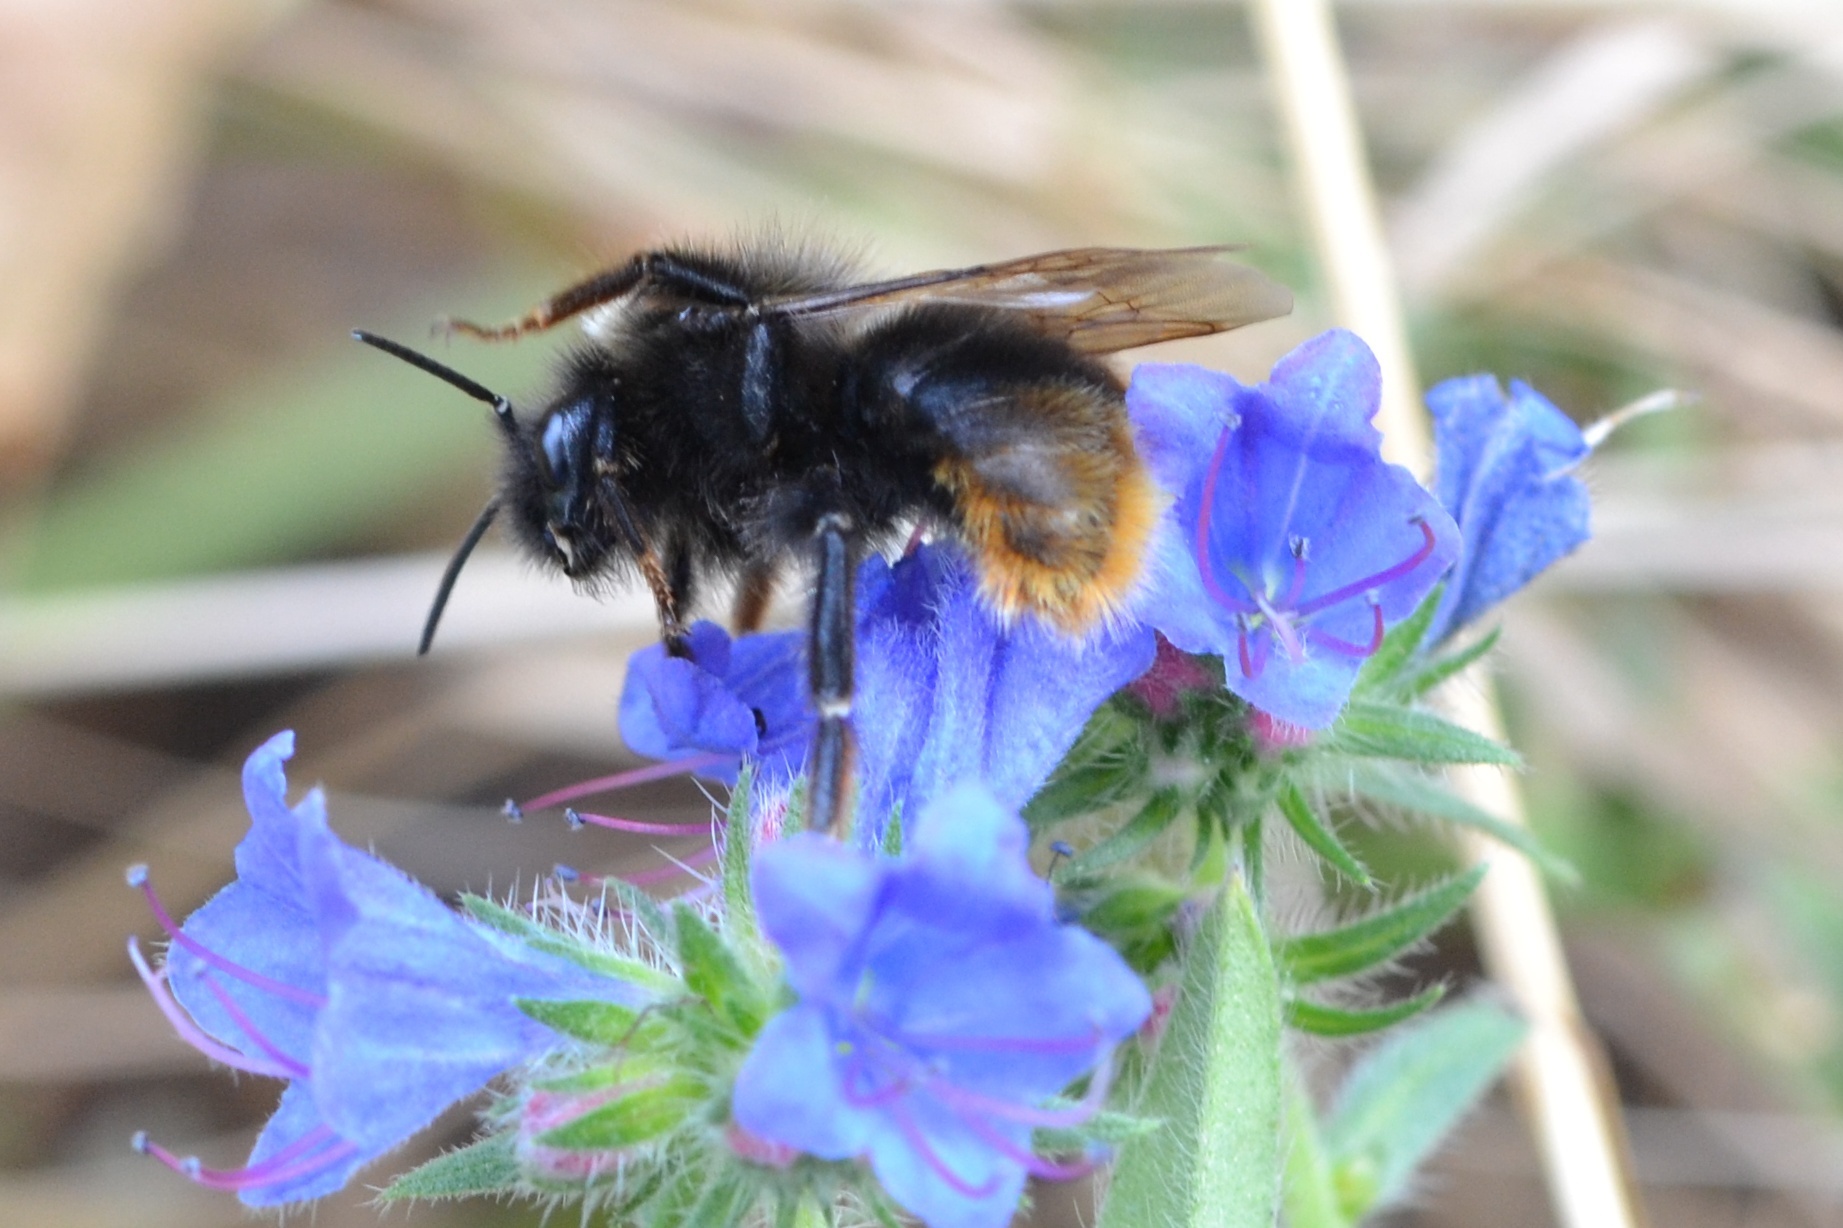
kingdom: Animalia
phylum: Arthropoda
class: Insecta
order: Hymenoptera
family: Apidae
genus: Bombus
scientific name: Bombus rupestris
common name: Hill cuckoo-bee
